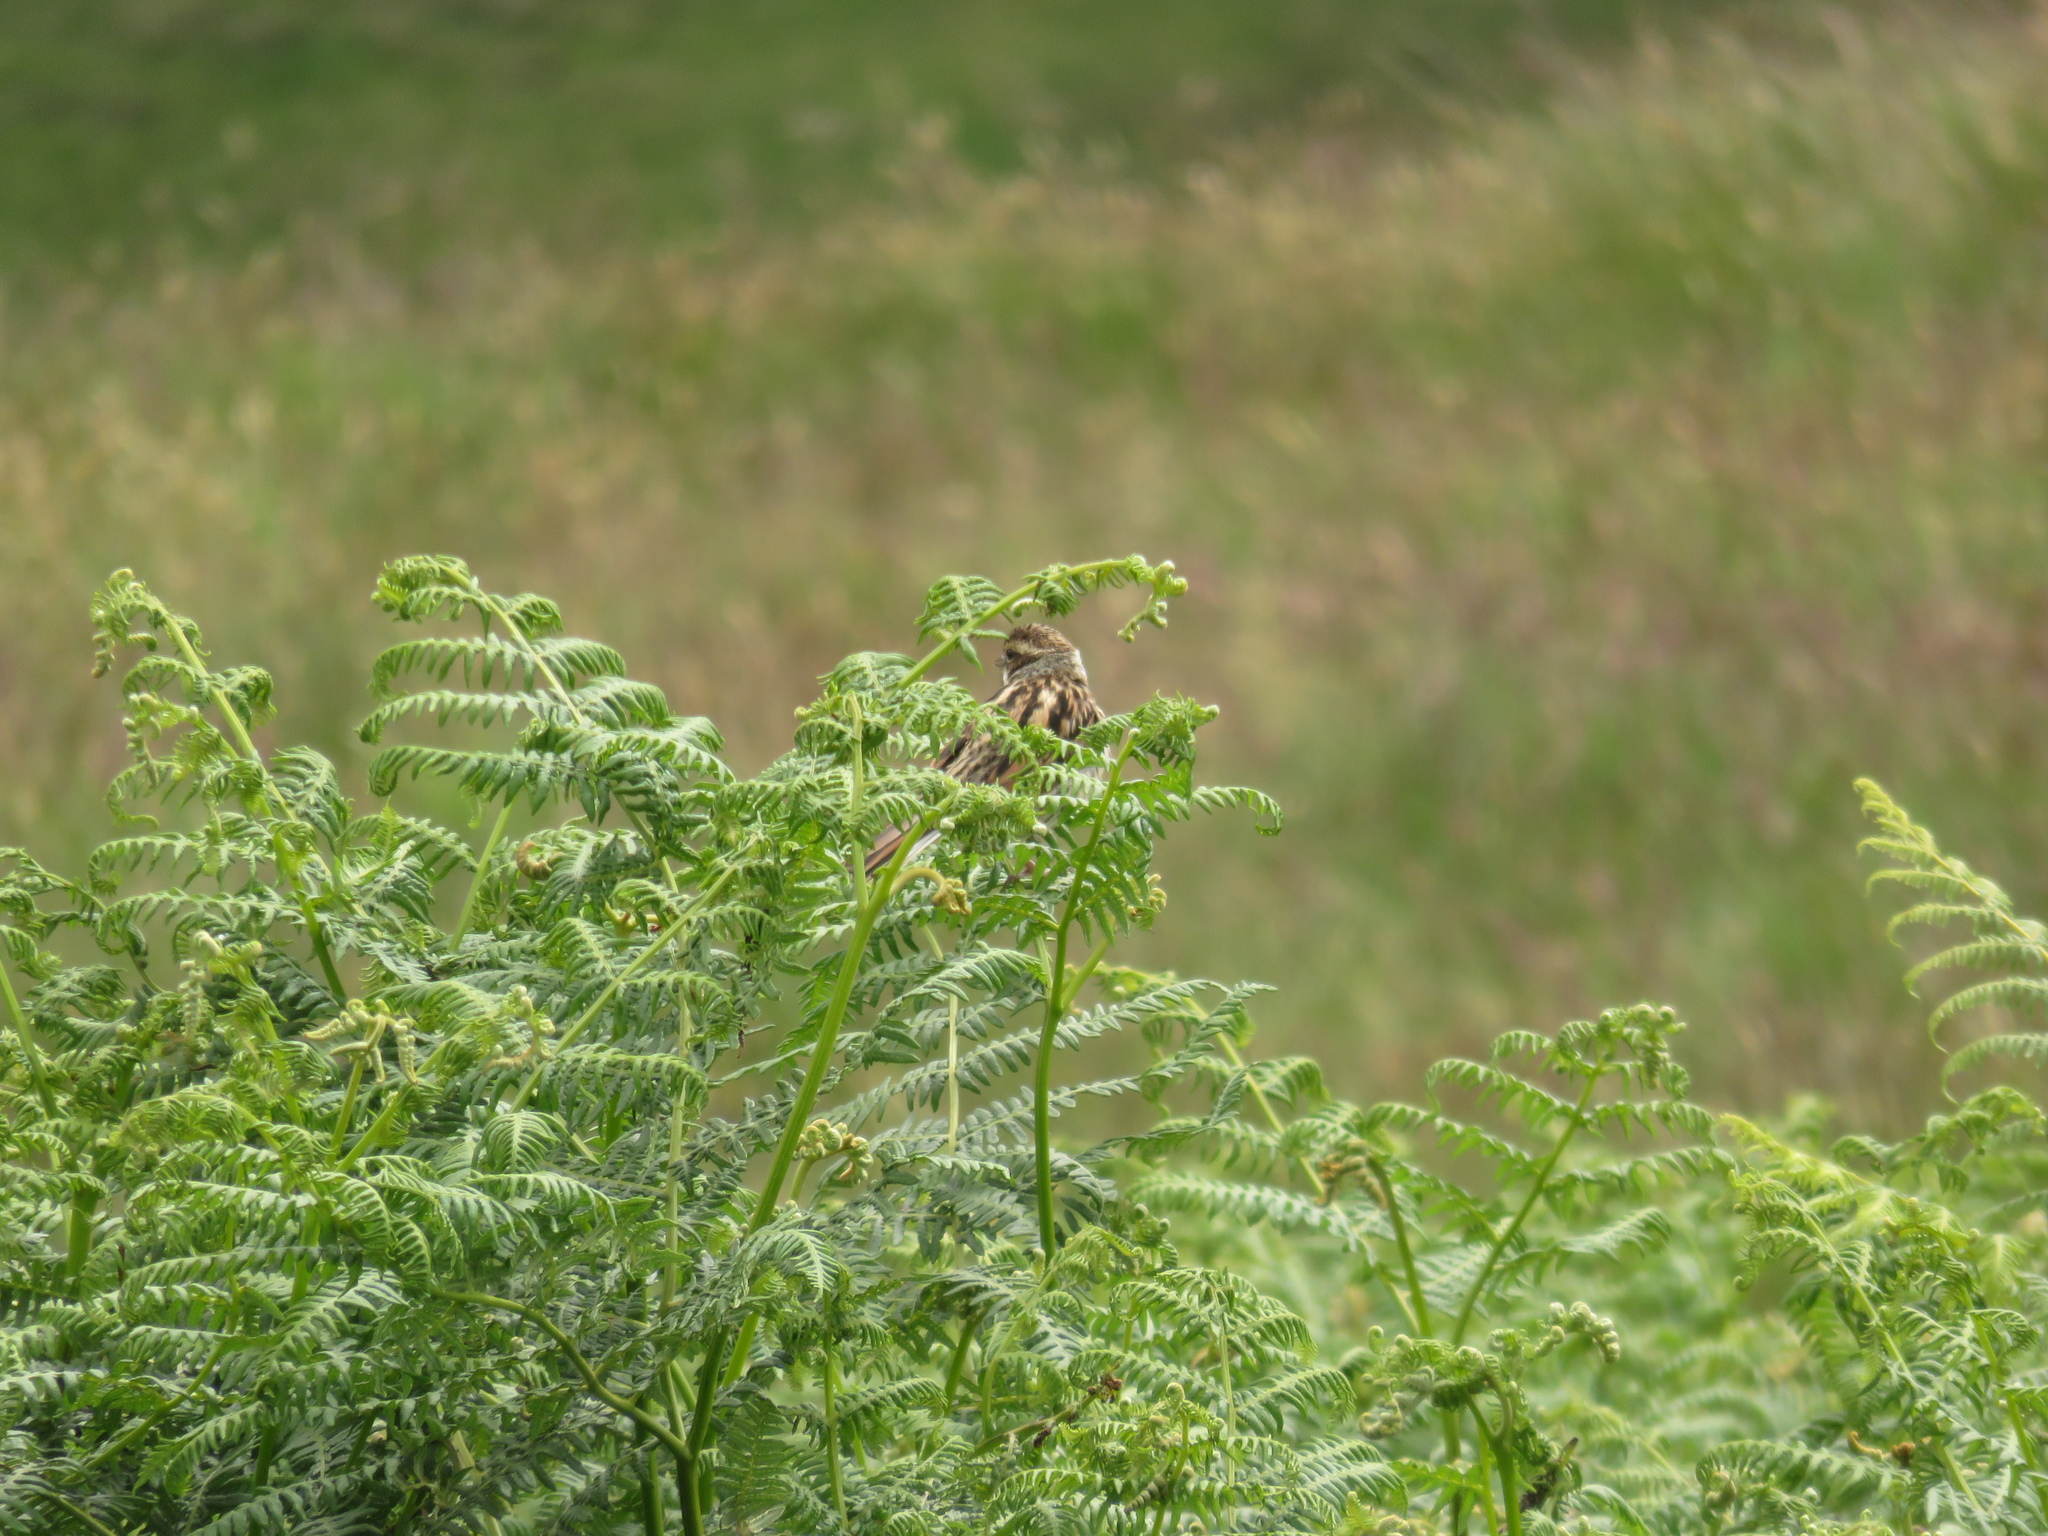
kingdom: Animalia
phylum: Chordata
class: Aves
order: Passeriformes
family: Emberizidae
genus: Emberiza
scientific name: Emberiza schoeniclus
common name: Reed bunting
